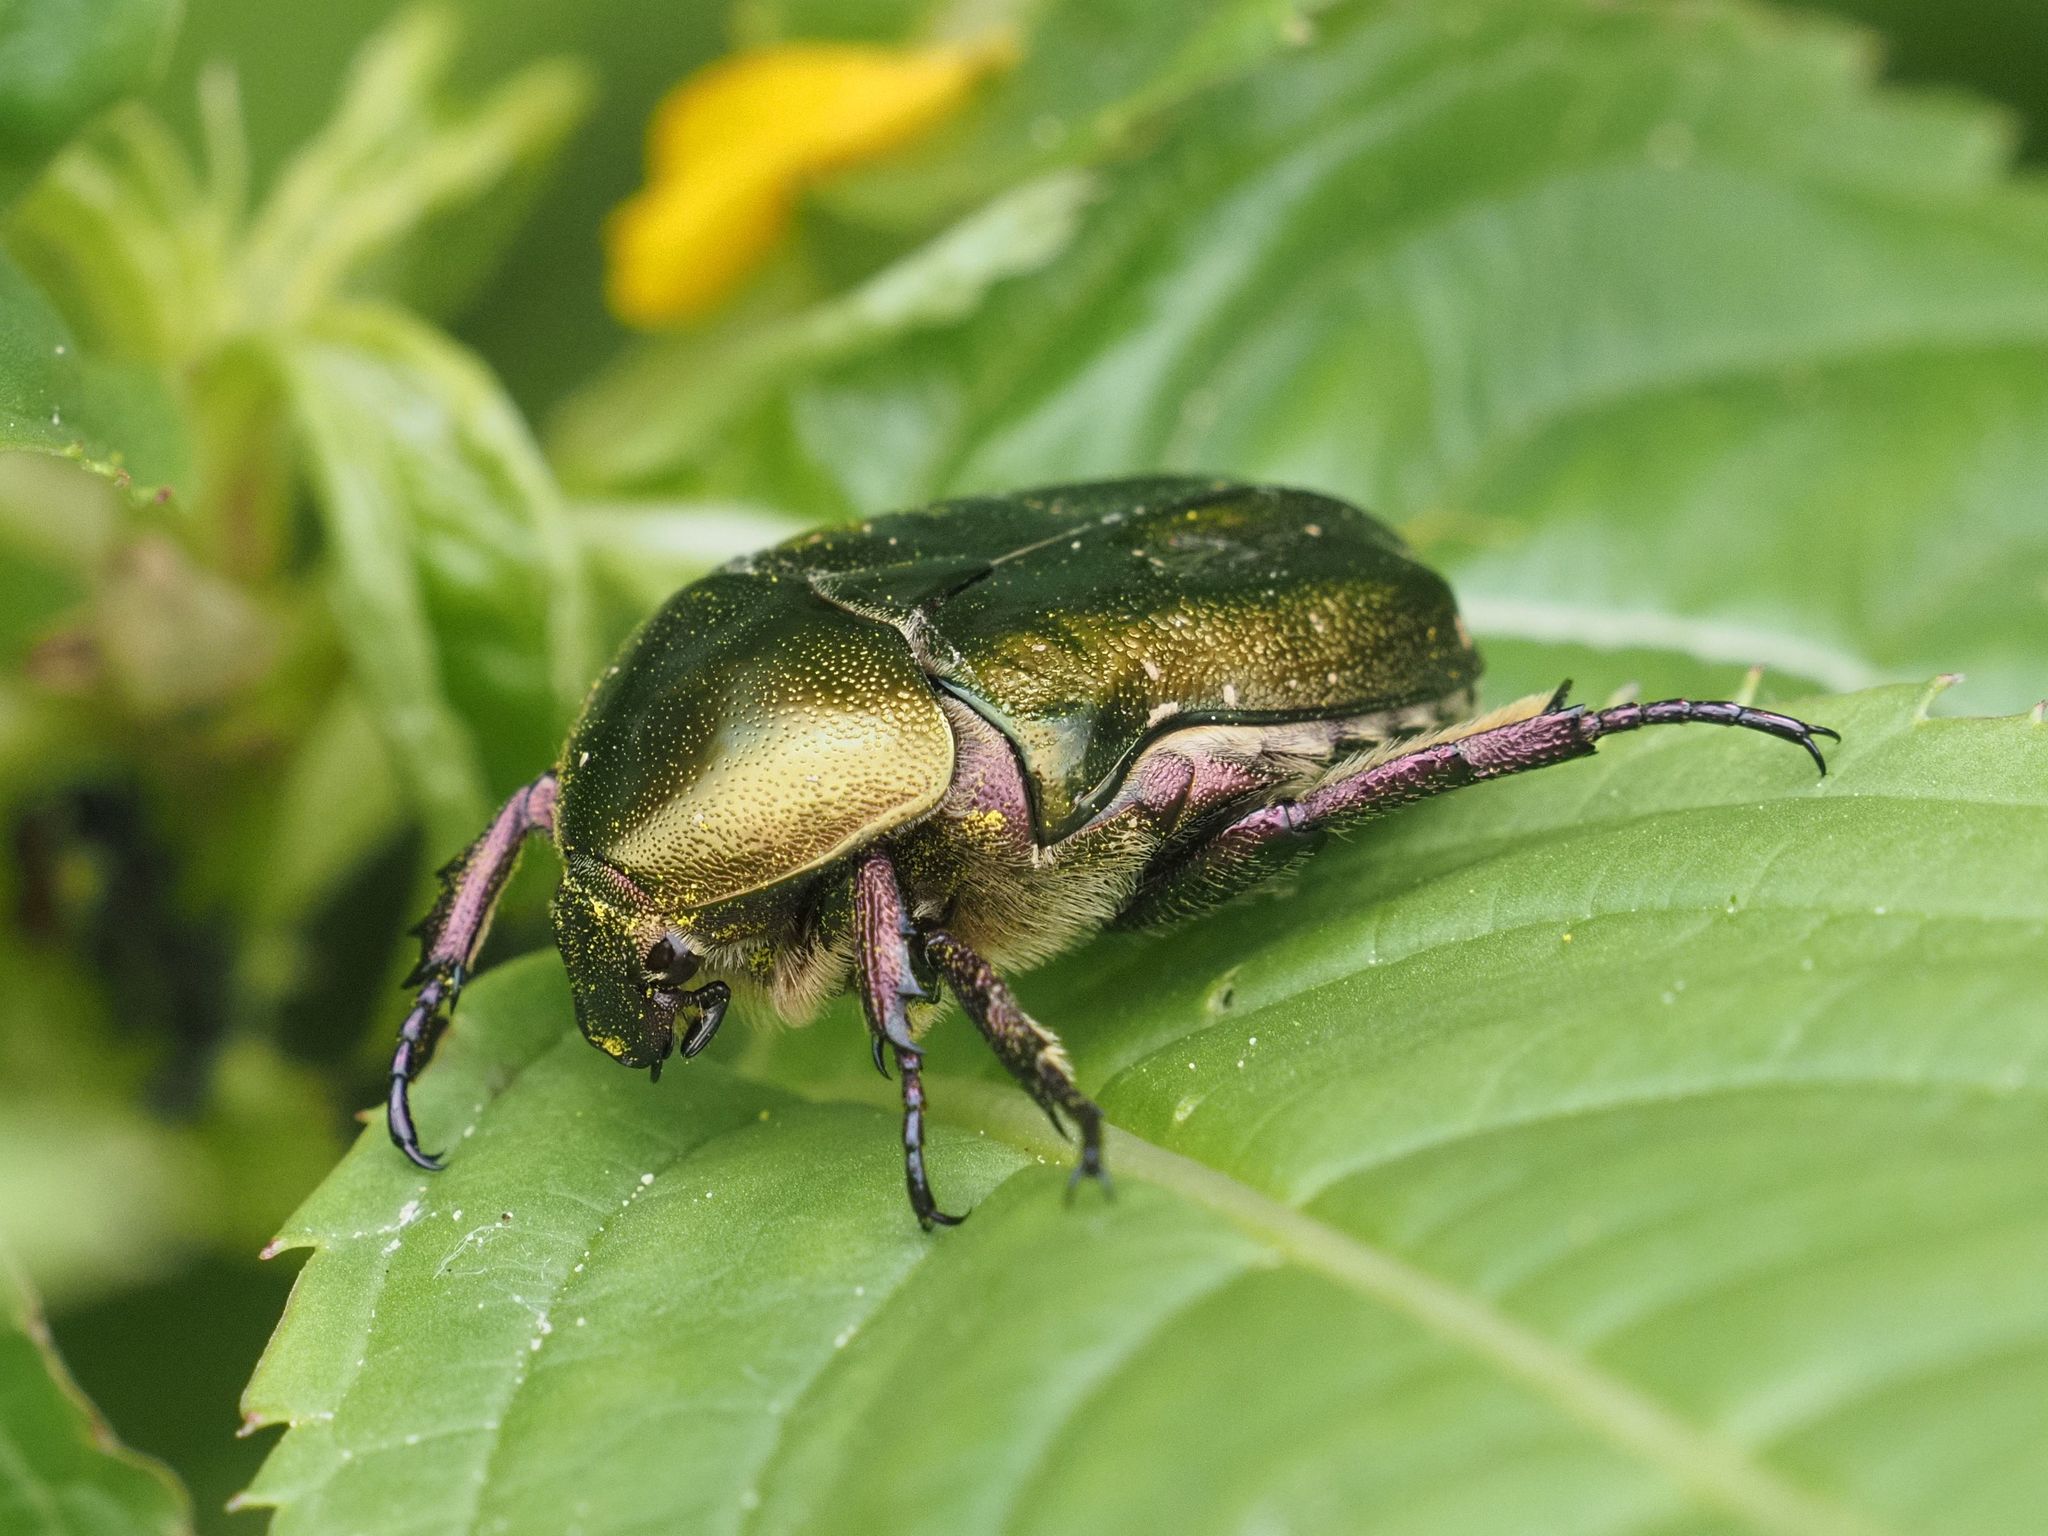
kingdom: Animalia
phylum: Arthropoda
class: Insecta
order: Coleoptera
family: Scarabaeidae
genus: Protaetia
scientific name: Protaetia cuprea
